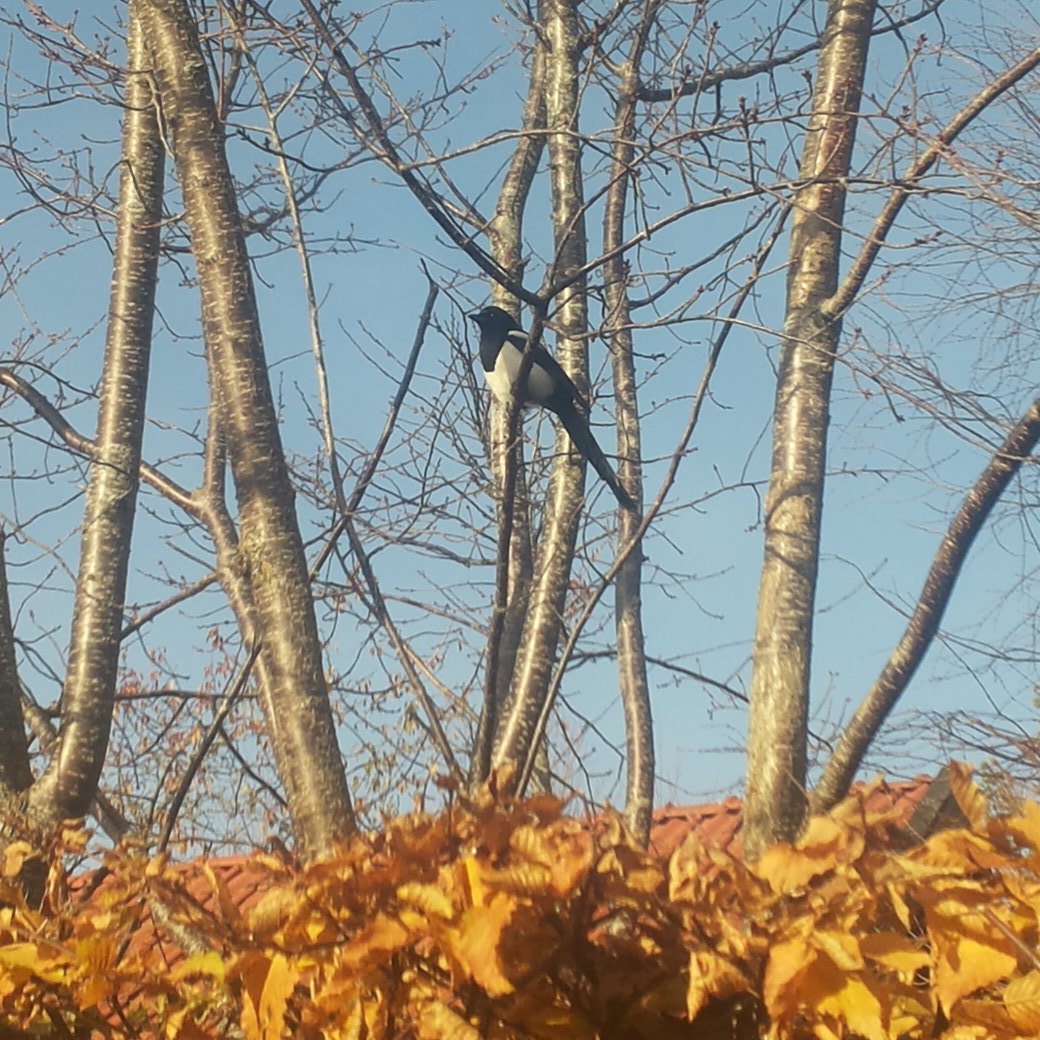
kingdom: Animalia
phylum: Chordata
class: Aves
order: Passeriformes
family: Corvidae
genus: Pica
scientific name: Pica pica
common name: Eurasian magpie
